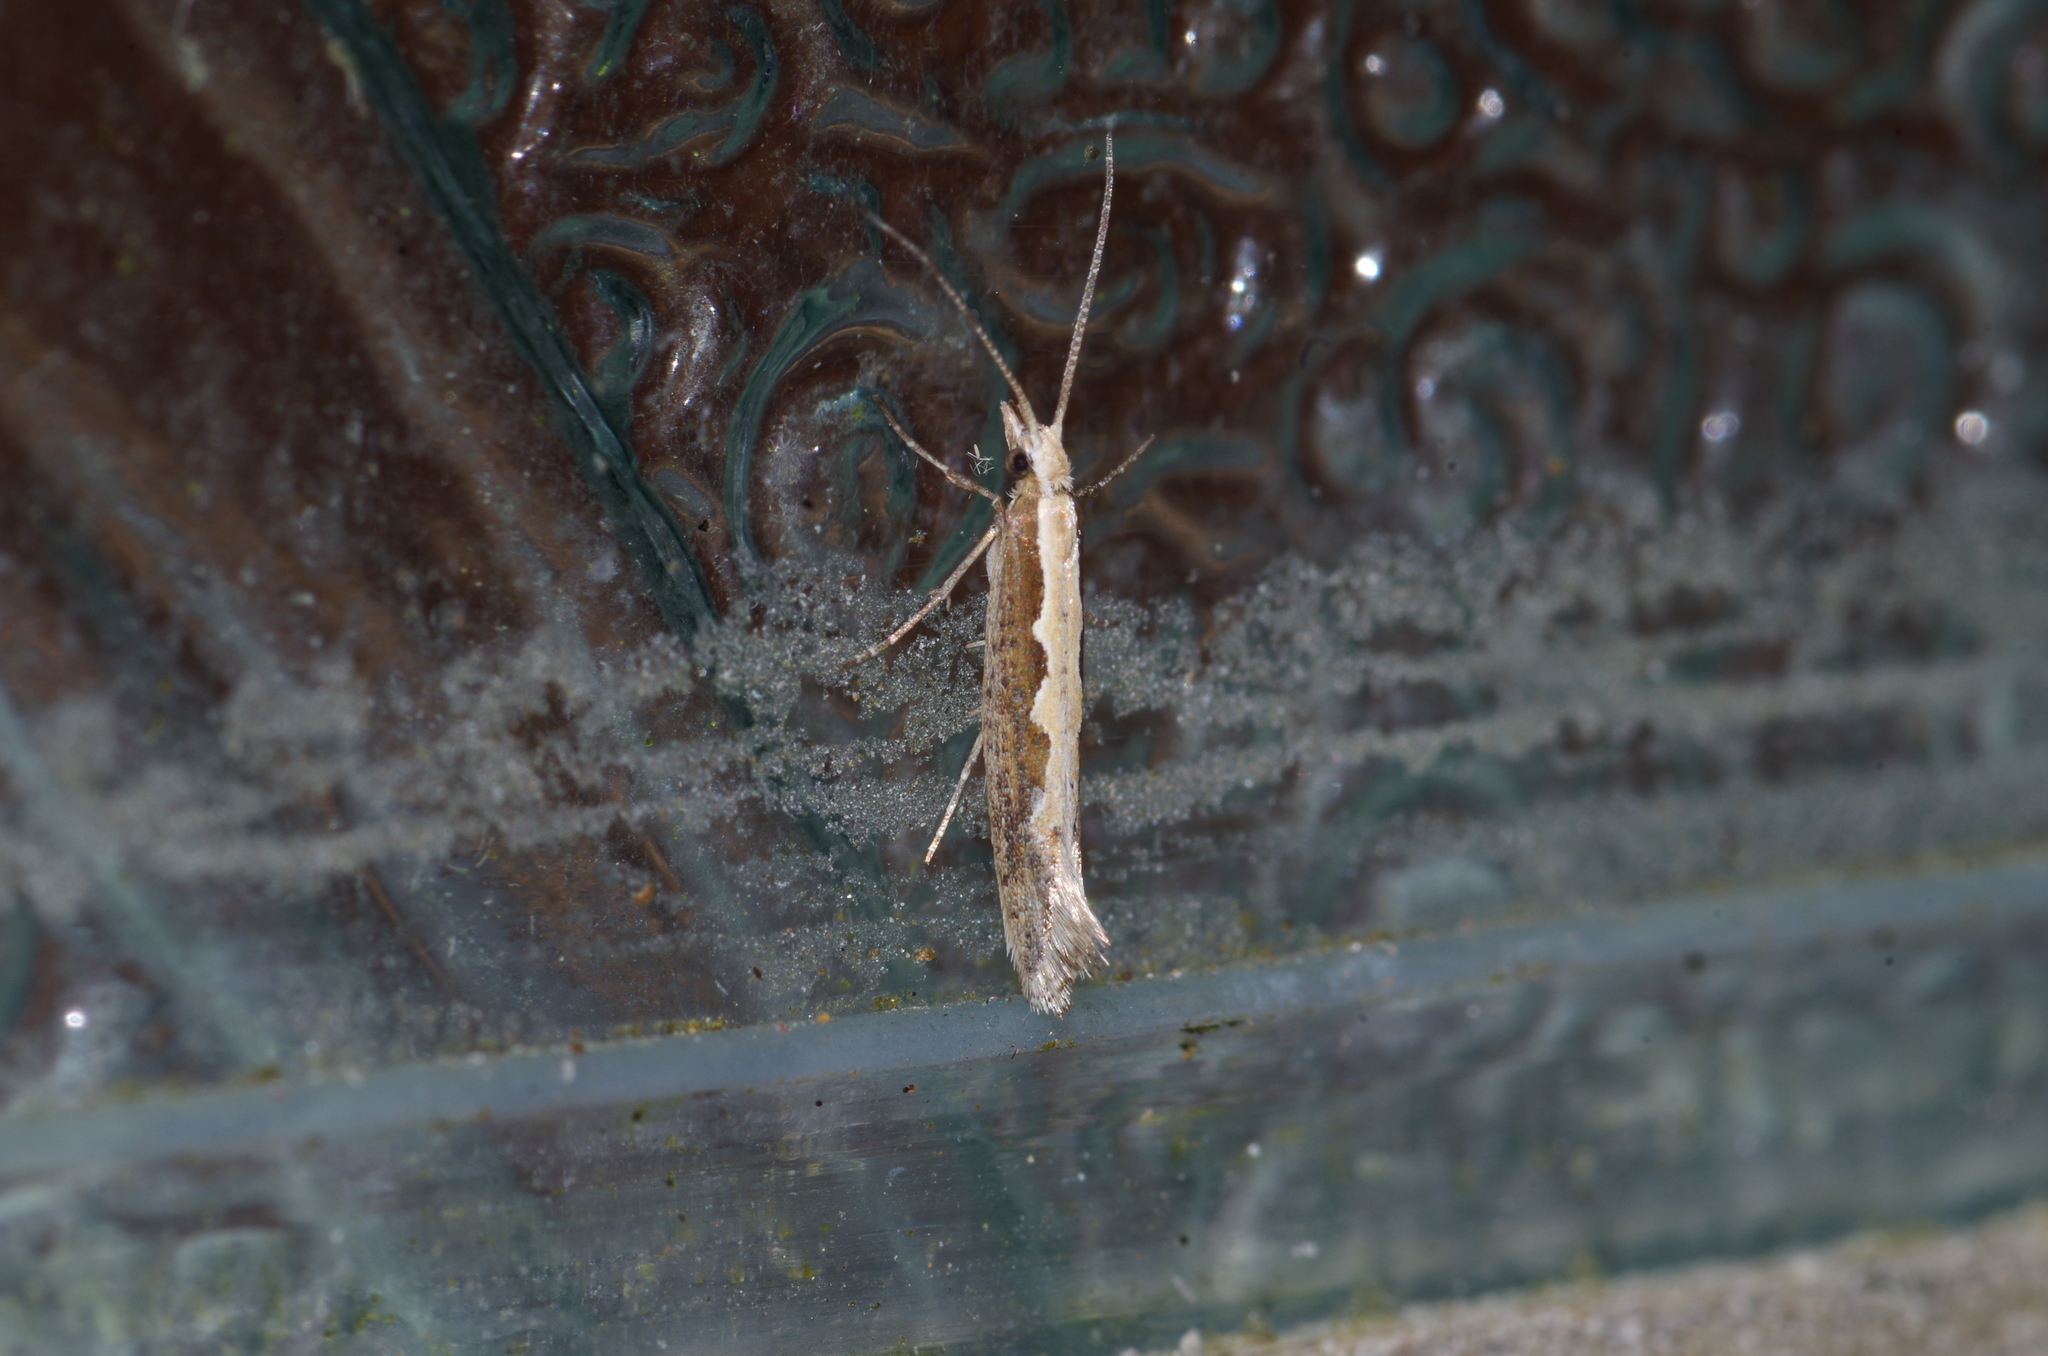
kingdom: Animalia
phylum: Arthropoda
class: Insecta
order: Lepidoptera
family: Plutellidae
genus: Plutella
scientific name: Plutella xylostella
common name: Diamond-back moth
